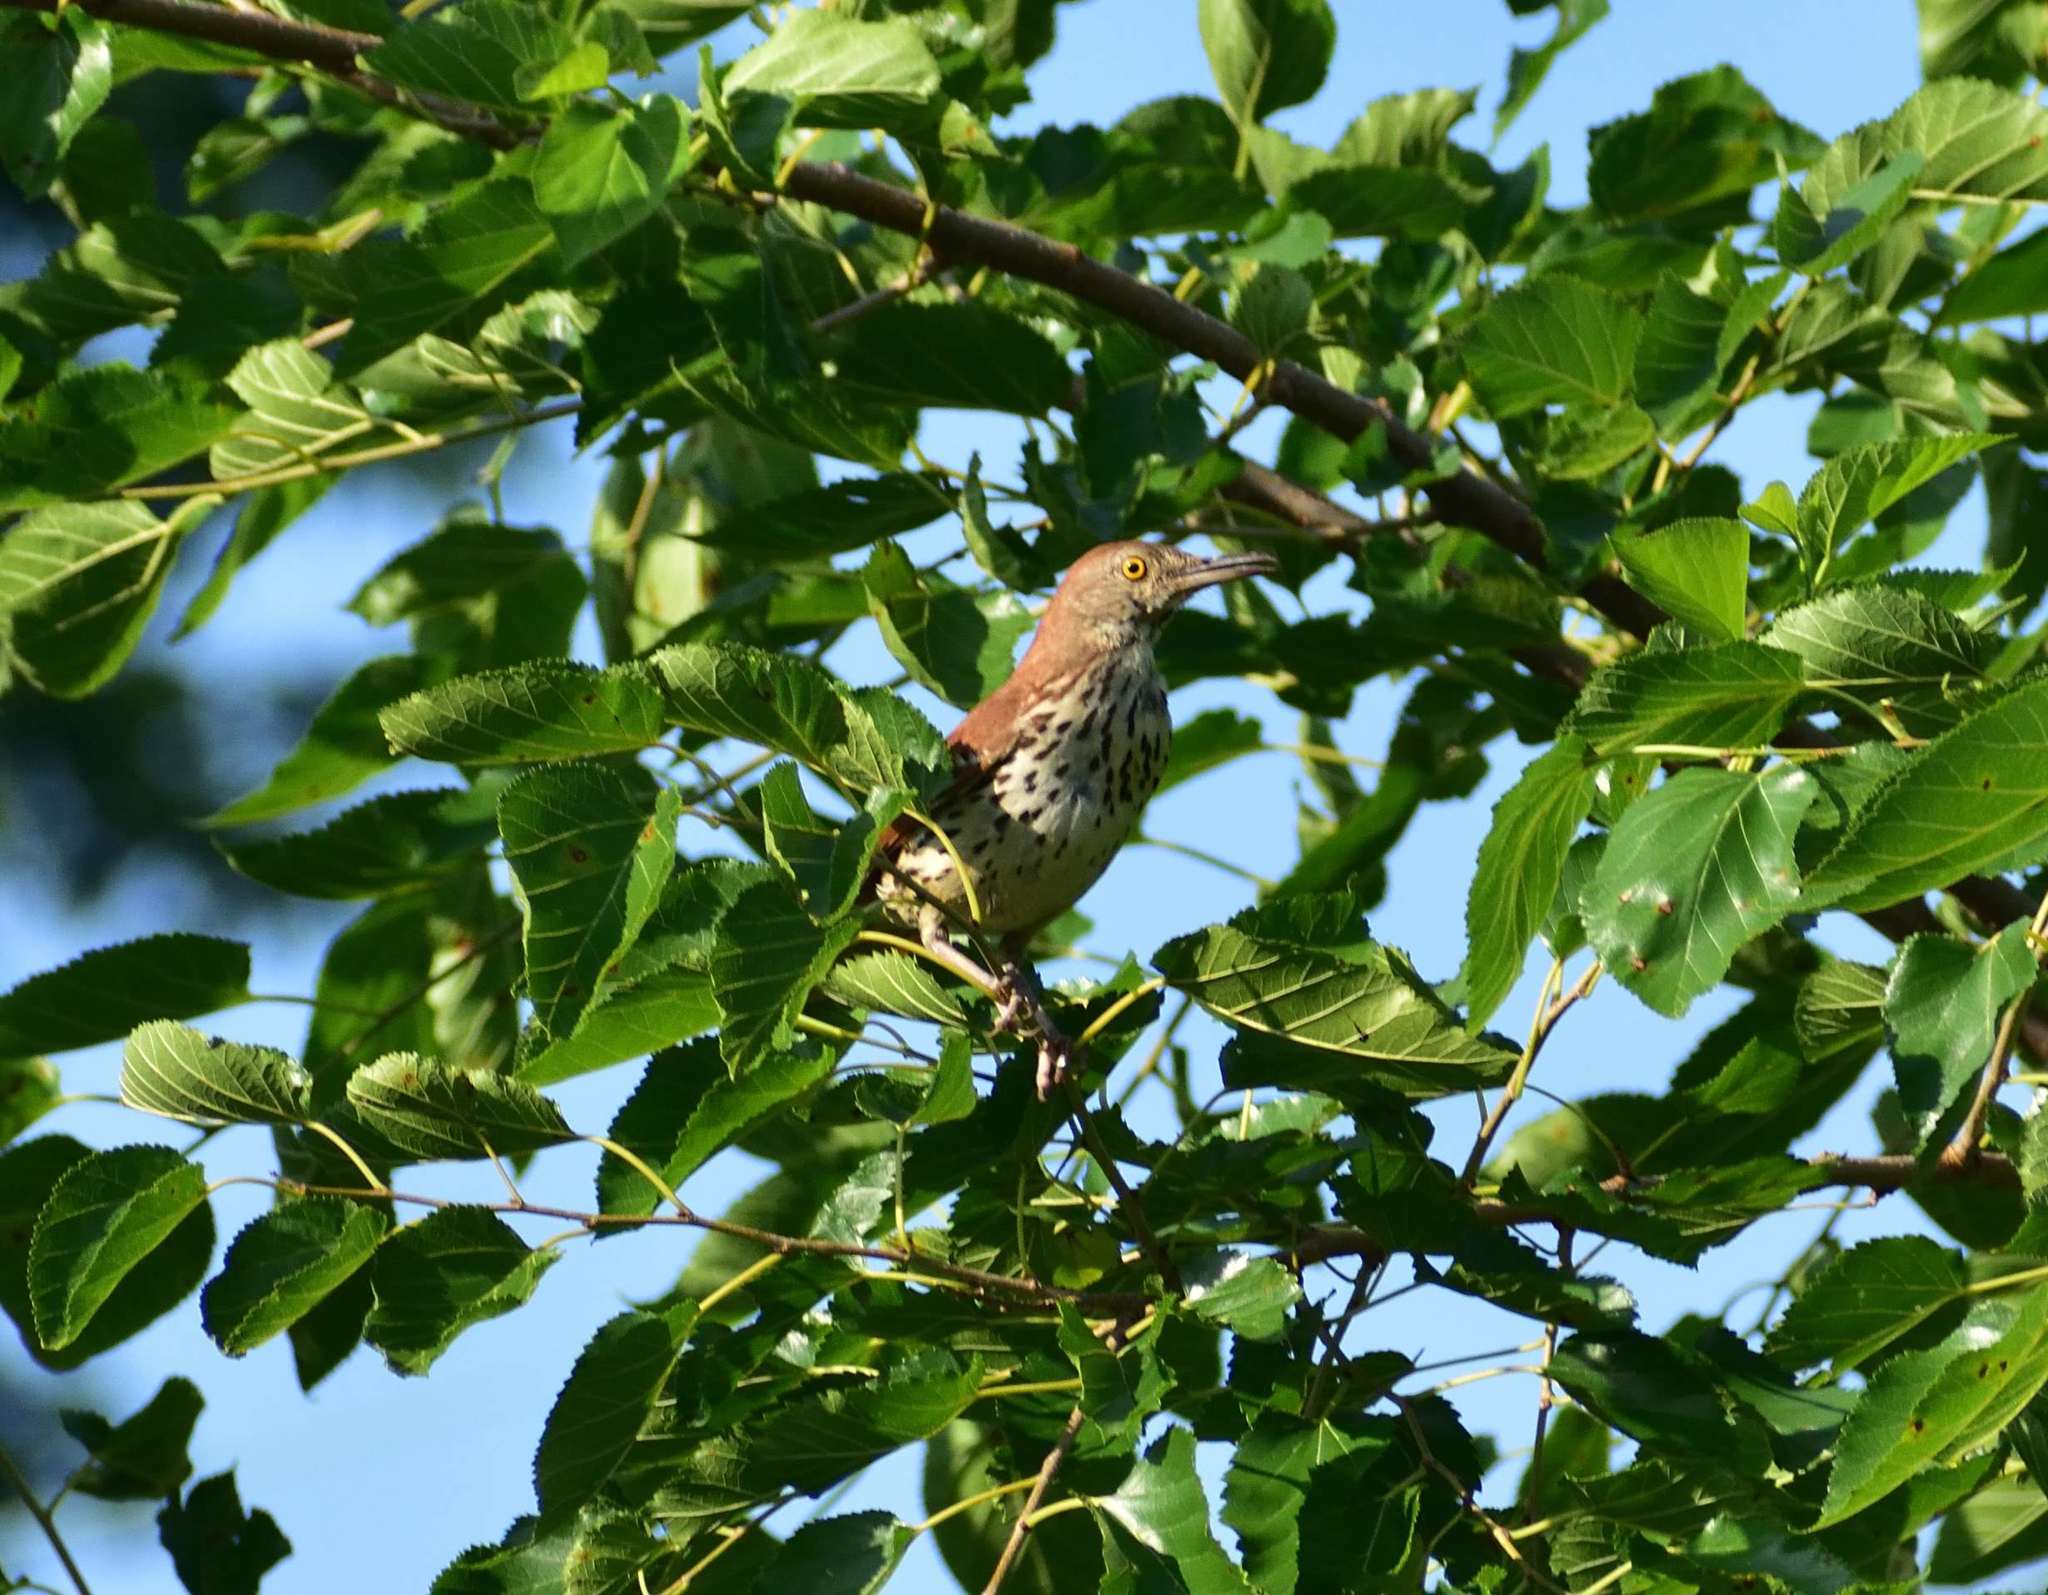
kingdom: Animalia
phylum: Chordata
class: Aves
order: Passeriformes
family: Mimidae
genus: Toxostoma
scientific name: Toxostoma rufum
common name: Brown thrasher
